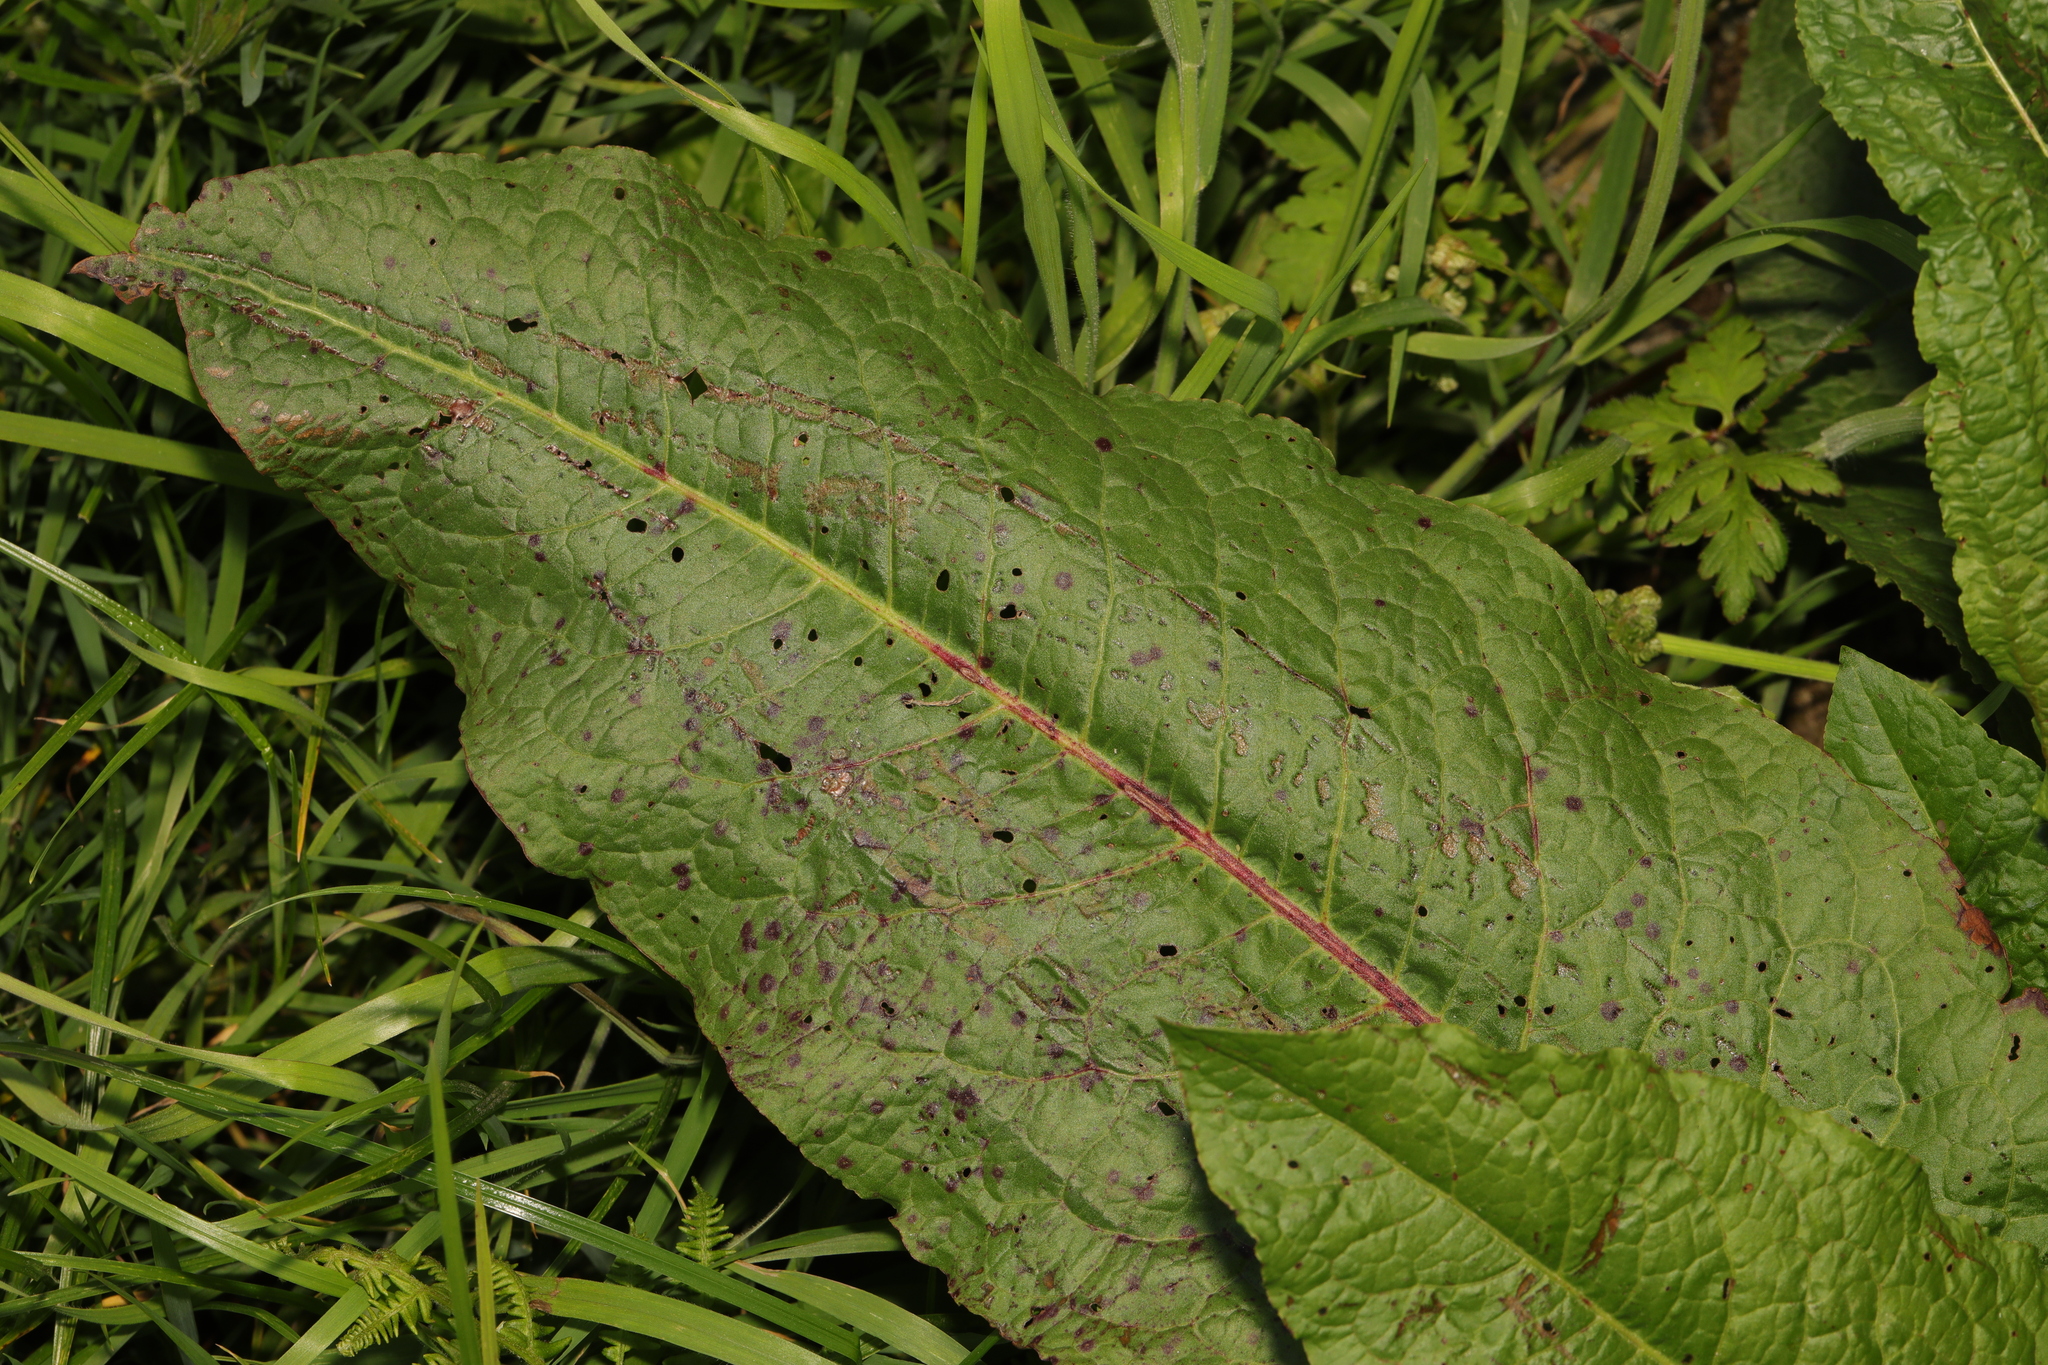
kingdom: Plantae
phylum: Tracheophyta
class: Magnoliopsida
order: Caryophyllales
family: Polygonaceae
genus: Rumex
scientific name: Rumex obtusifolius
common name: Bitter dock
